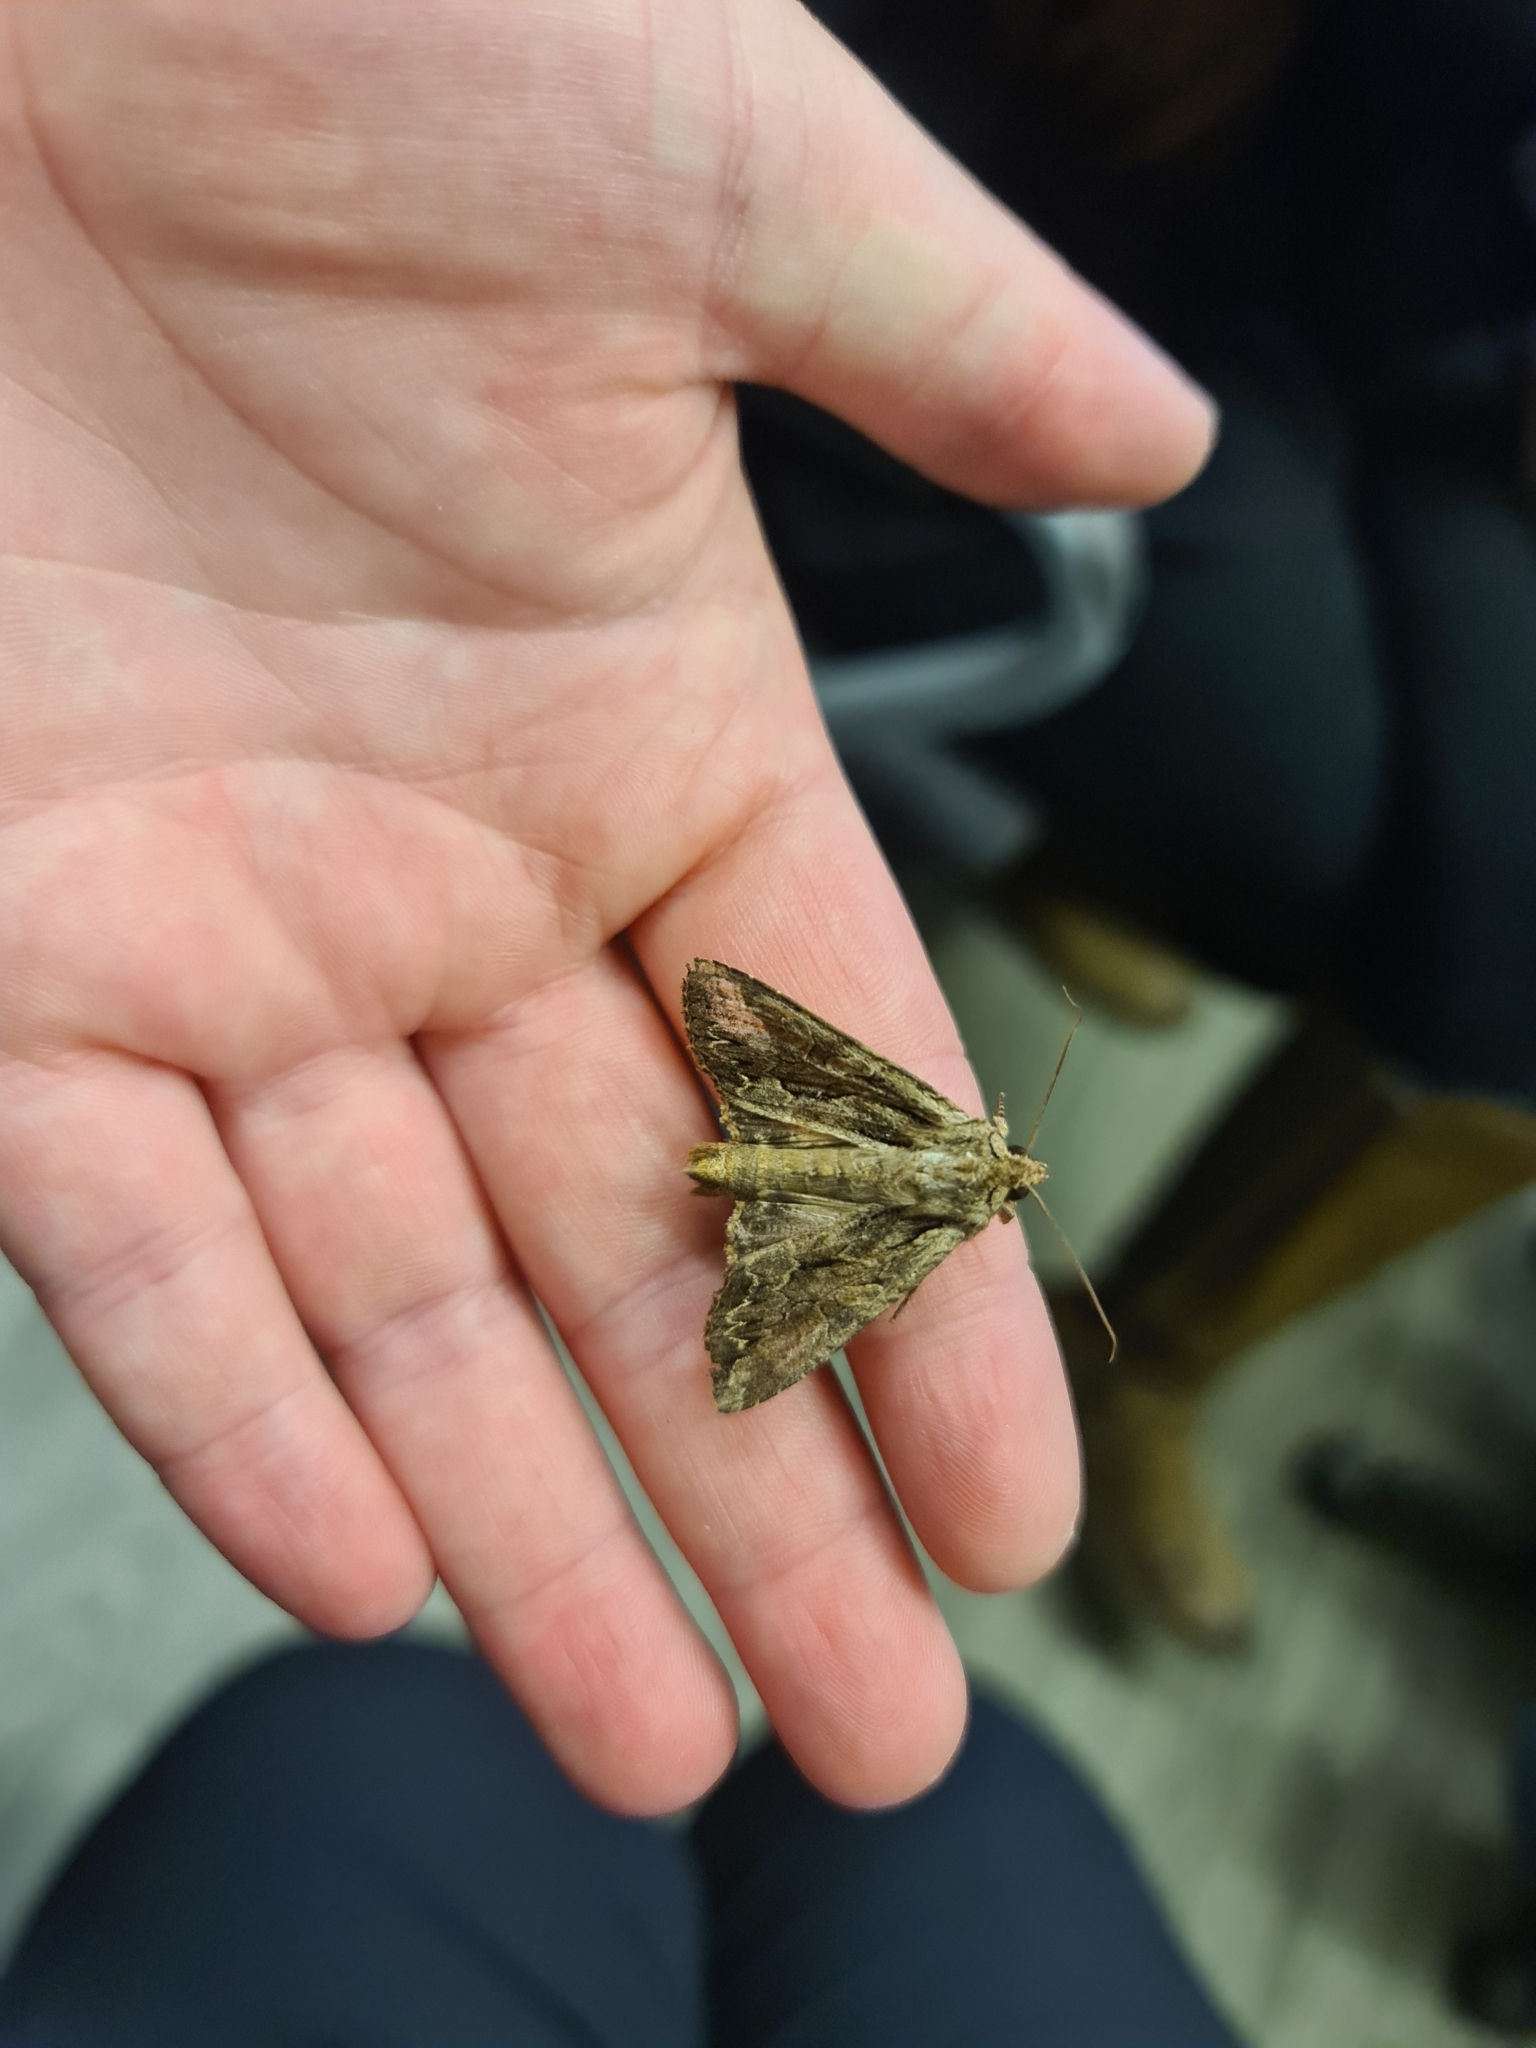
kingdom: Animalia
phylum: Arthropoda
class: Insecta
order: Lepidoptera
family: Noctuidae
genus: Apamea
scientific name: Apamea monoglypha
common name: Dark arches
